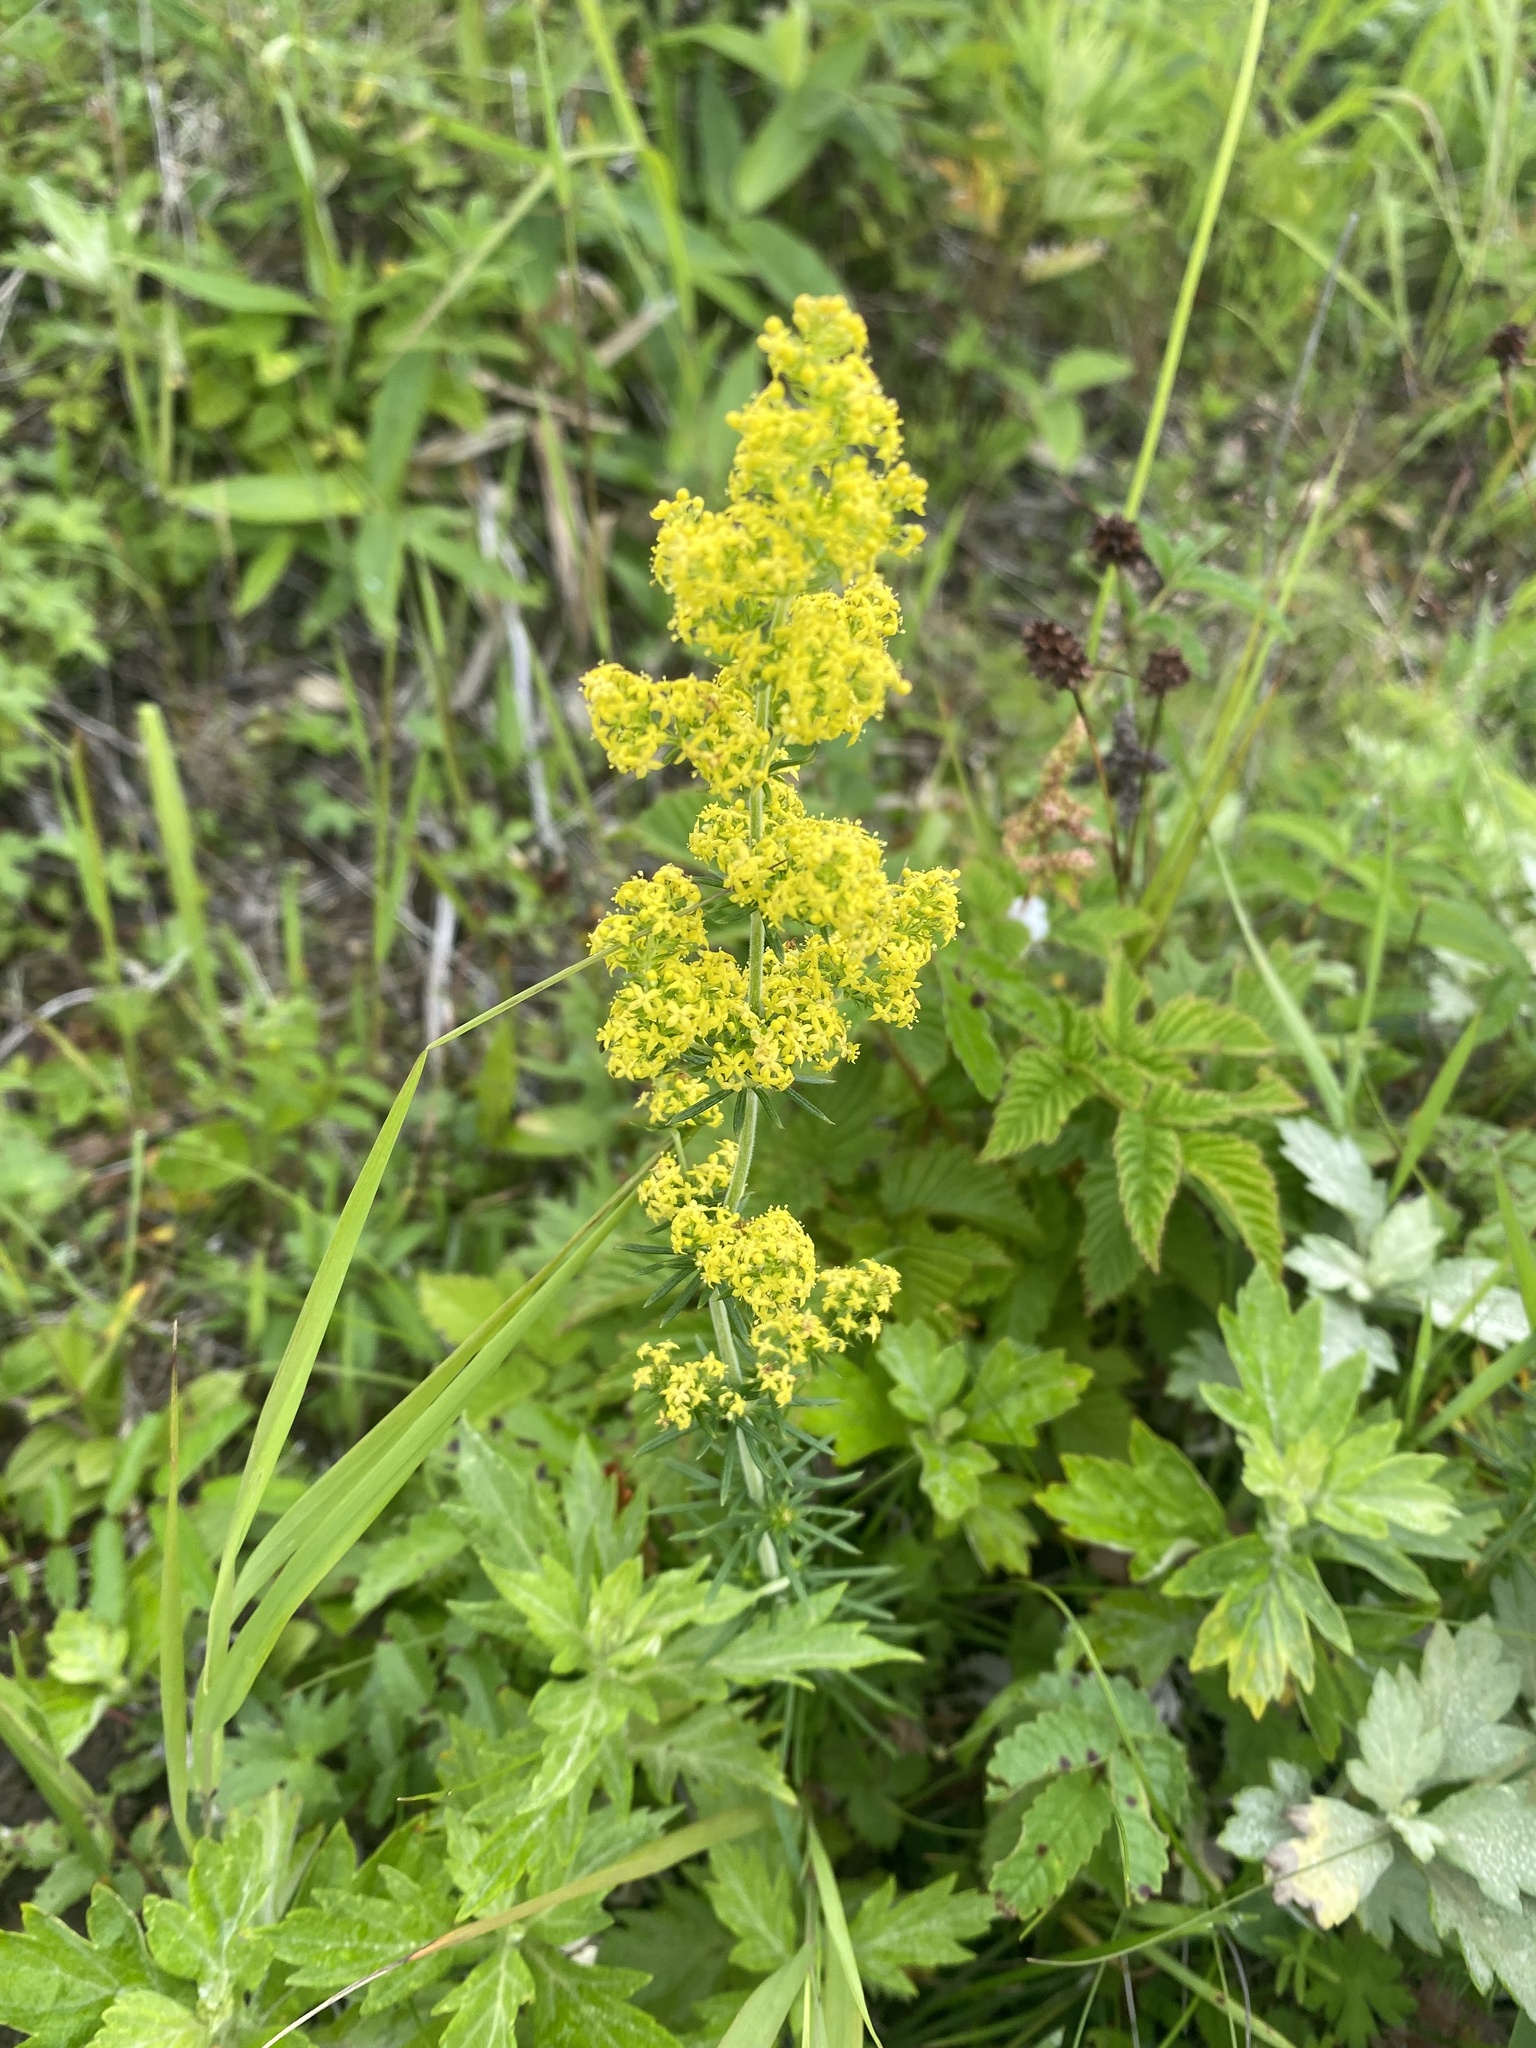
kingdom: Plantae
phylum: Tracheophyta
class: Magnoliopsida
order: Gentianales
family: Rubiaceae
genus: Galium
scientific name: Galium verum
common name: Lady's bedstraw
